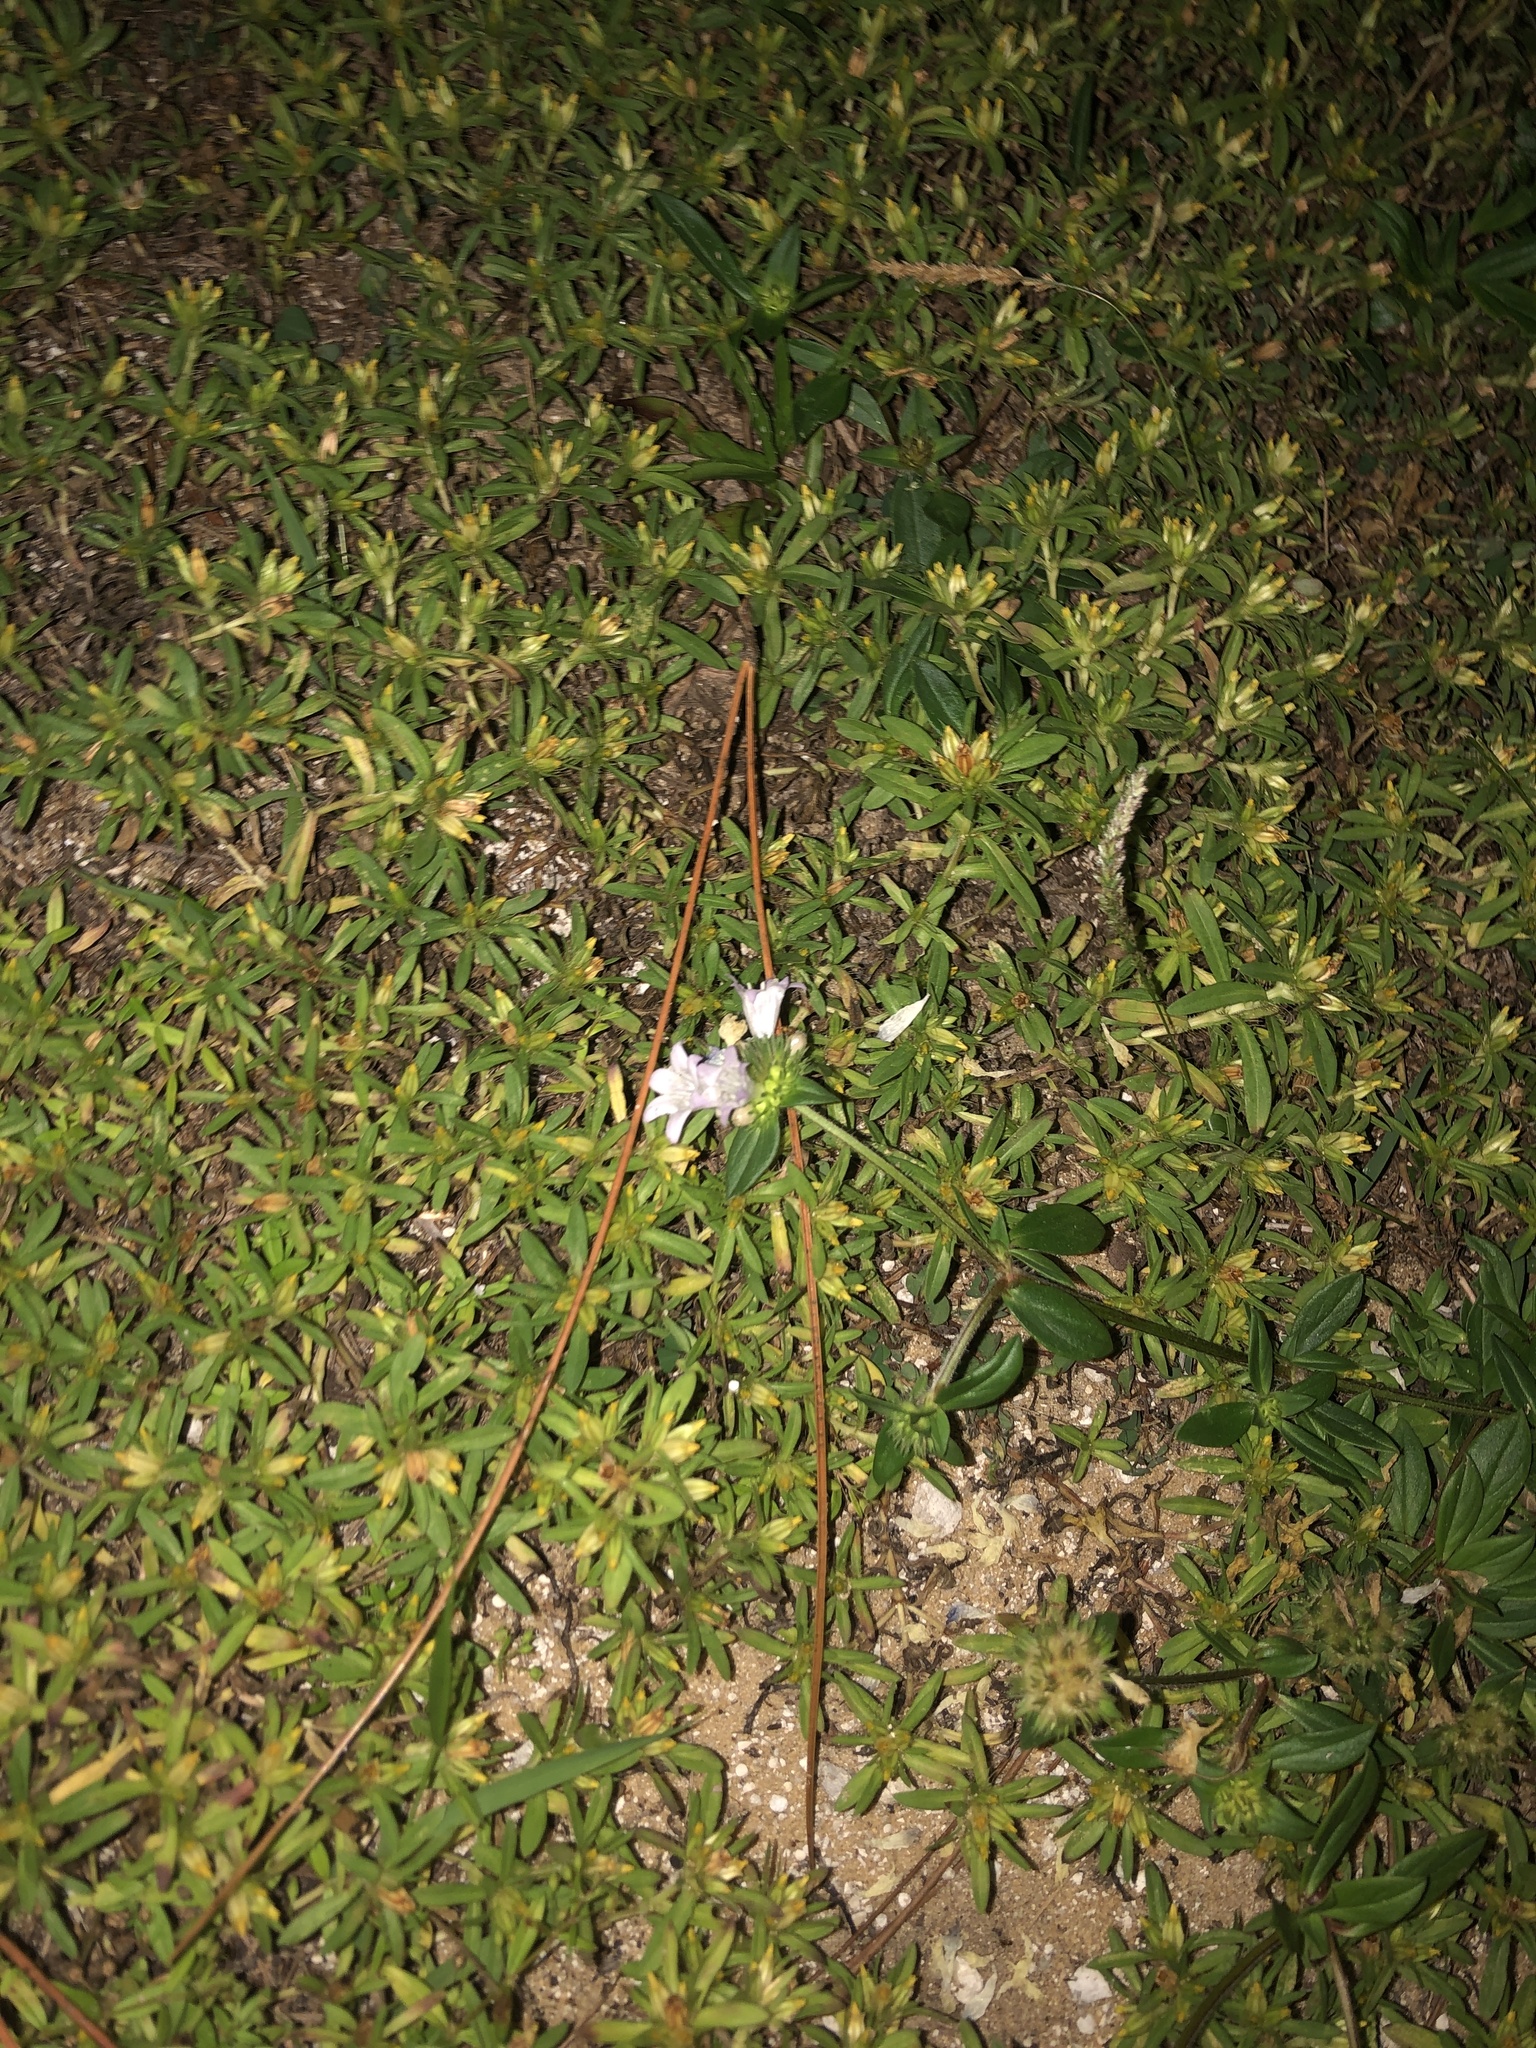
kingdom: Plantae
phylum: Tracheophyta
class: Magnoliopsida
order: Gentianales
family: Rubiaceae
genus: Richardia
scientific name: Richardia grandiflora
